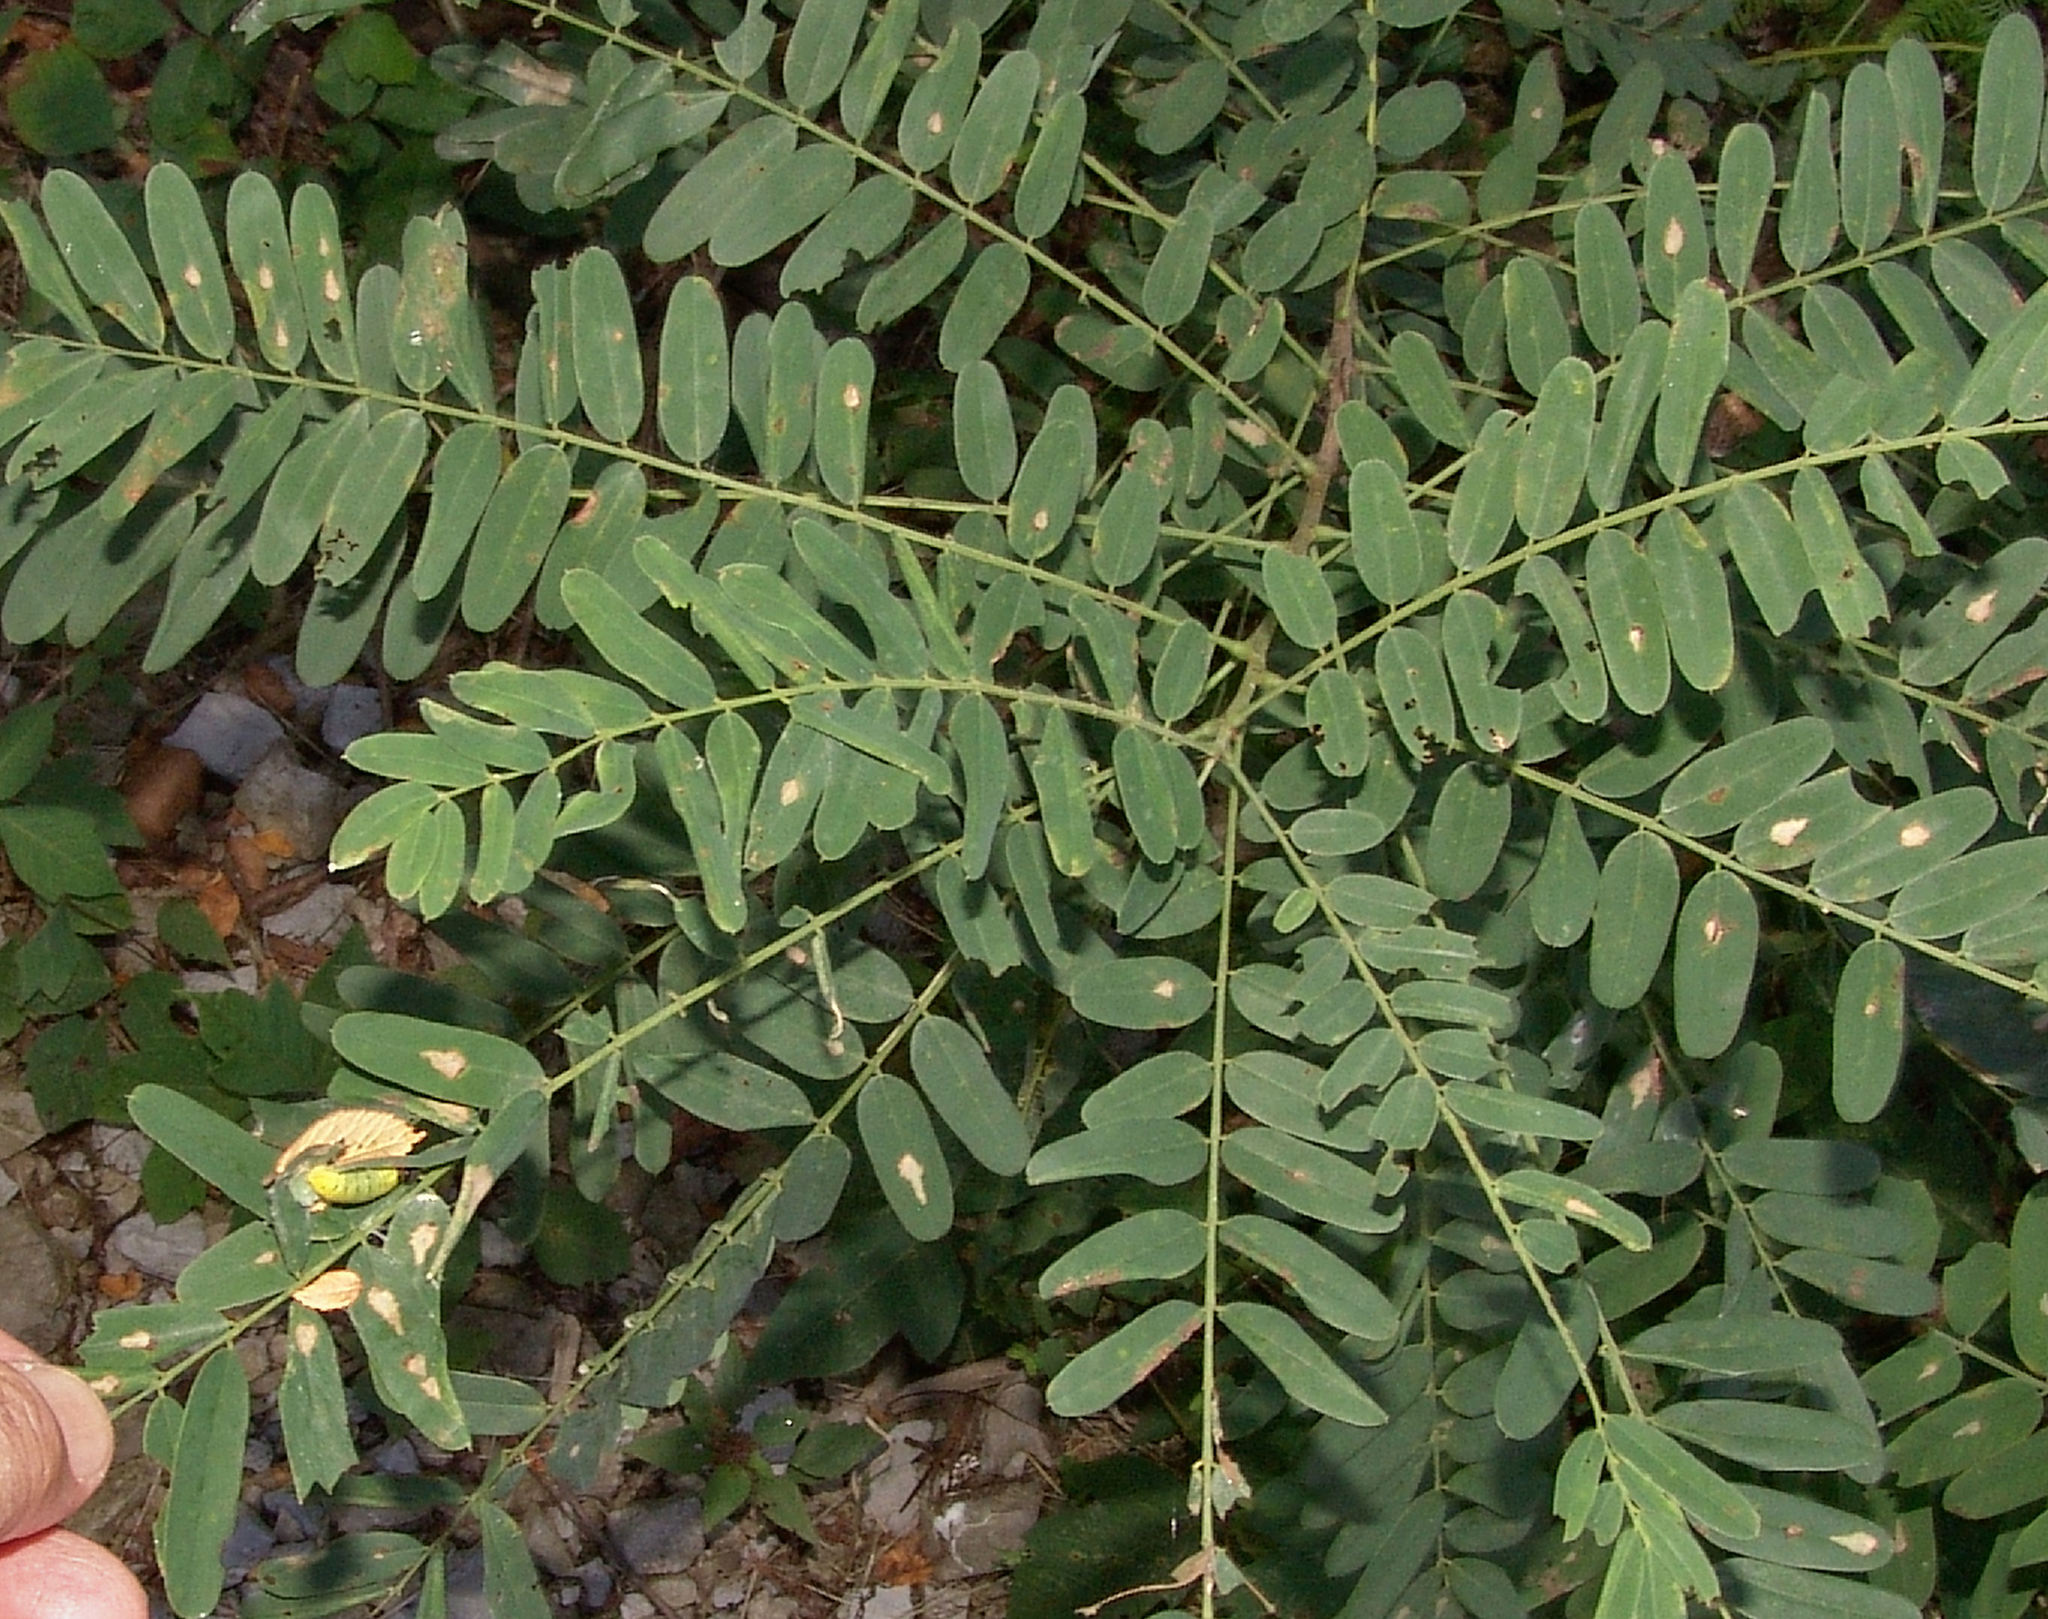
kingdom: Animalia
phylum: Arthropoda
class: Insecta
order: Lepidoptera
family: Hesperiidae
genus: Epargyreus
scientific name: Epargyreus clarus
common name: Silver-spotted skipper
